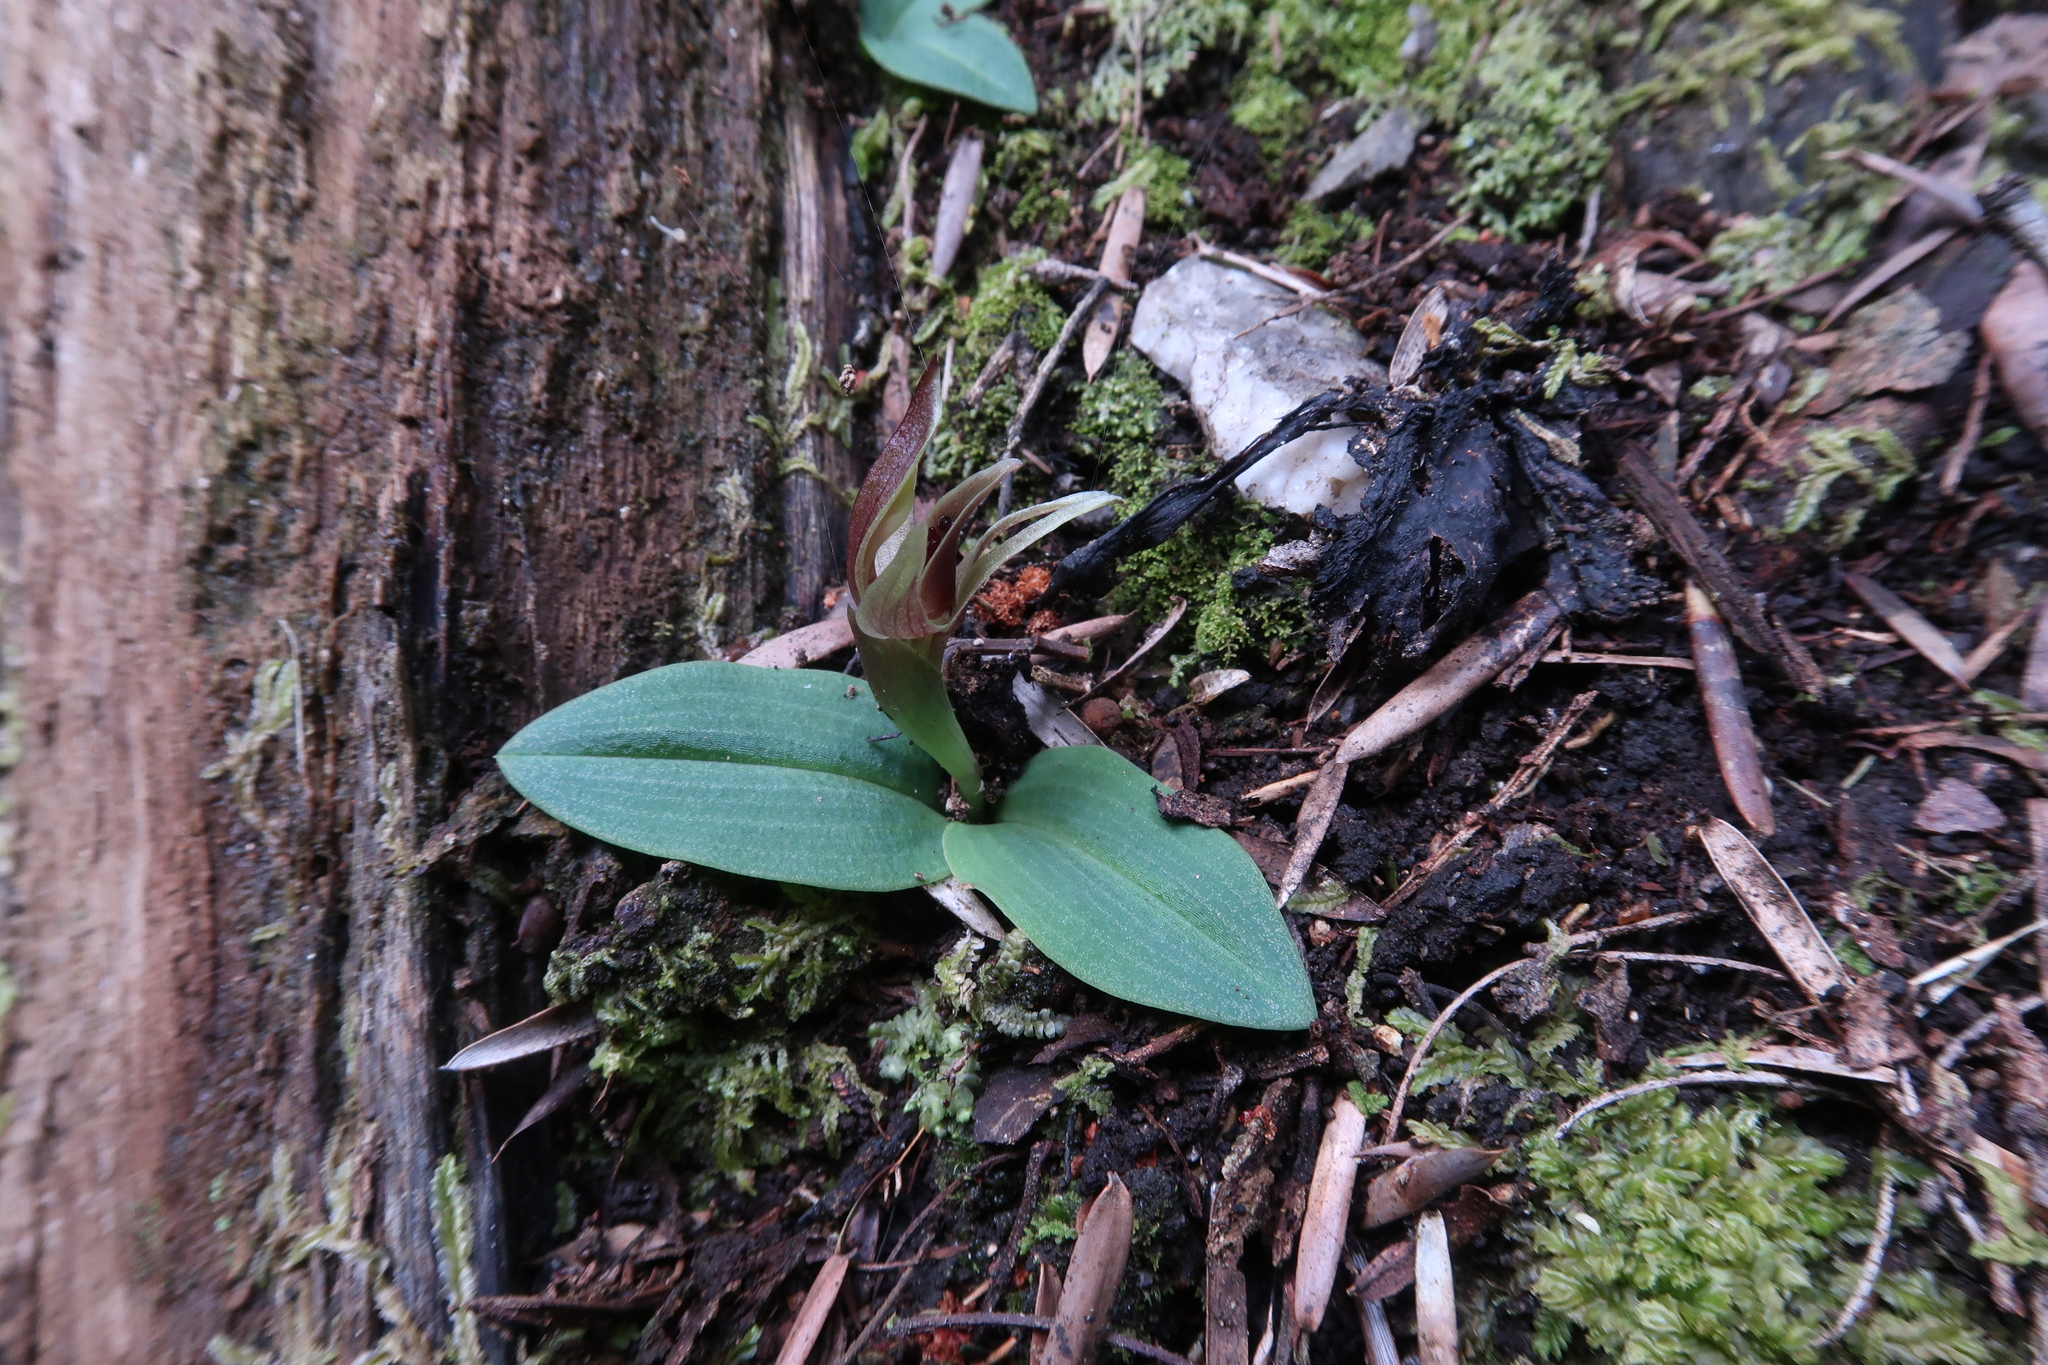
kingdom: Plantae
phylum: Tracheophyta
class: Liliopsida
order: Asparagales
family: Orchidaceae
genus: Chiloglottis
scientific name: Chiloglottis grammata
